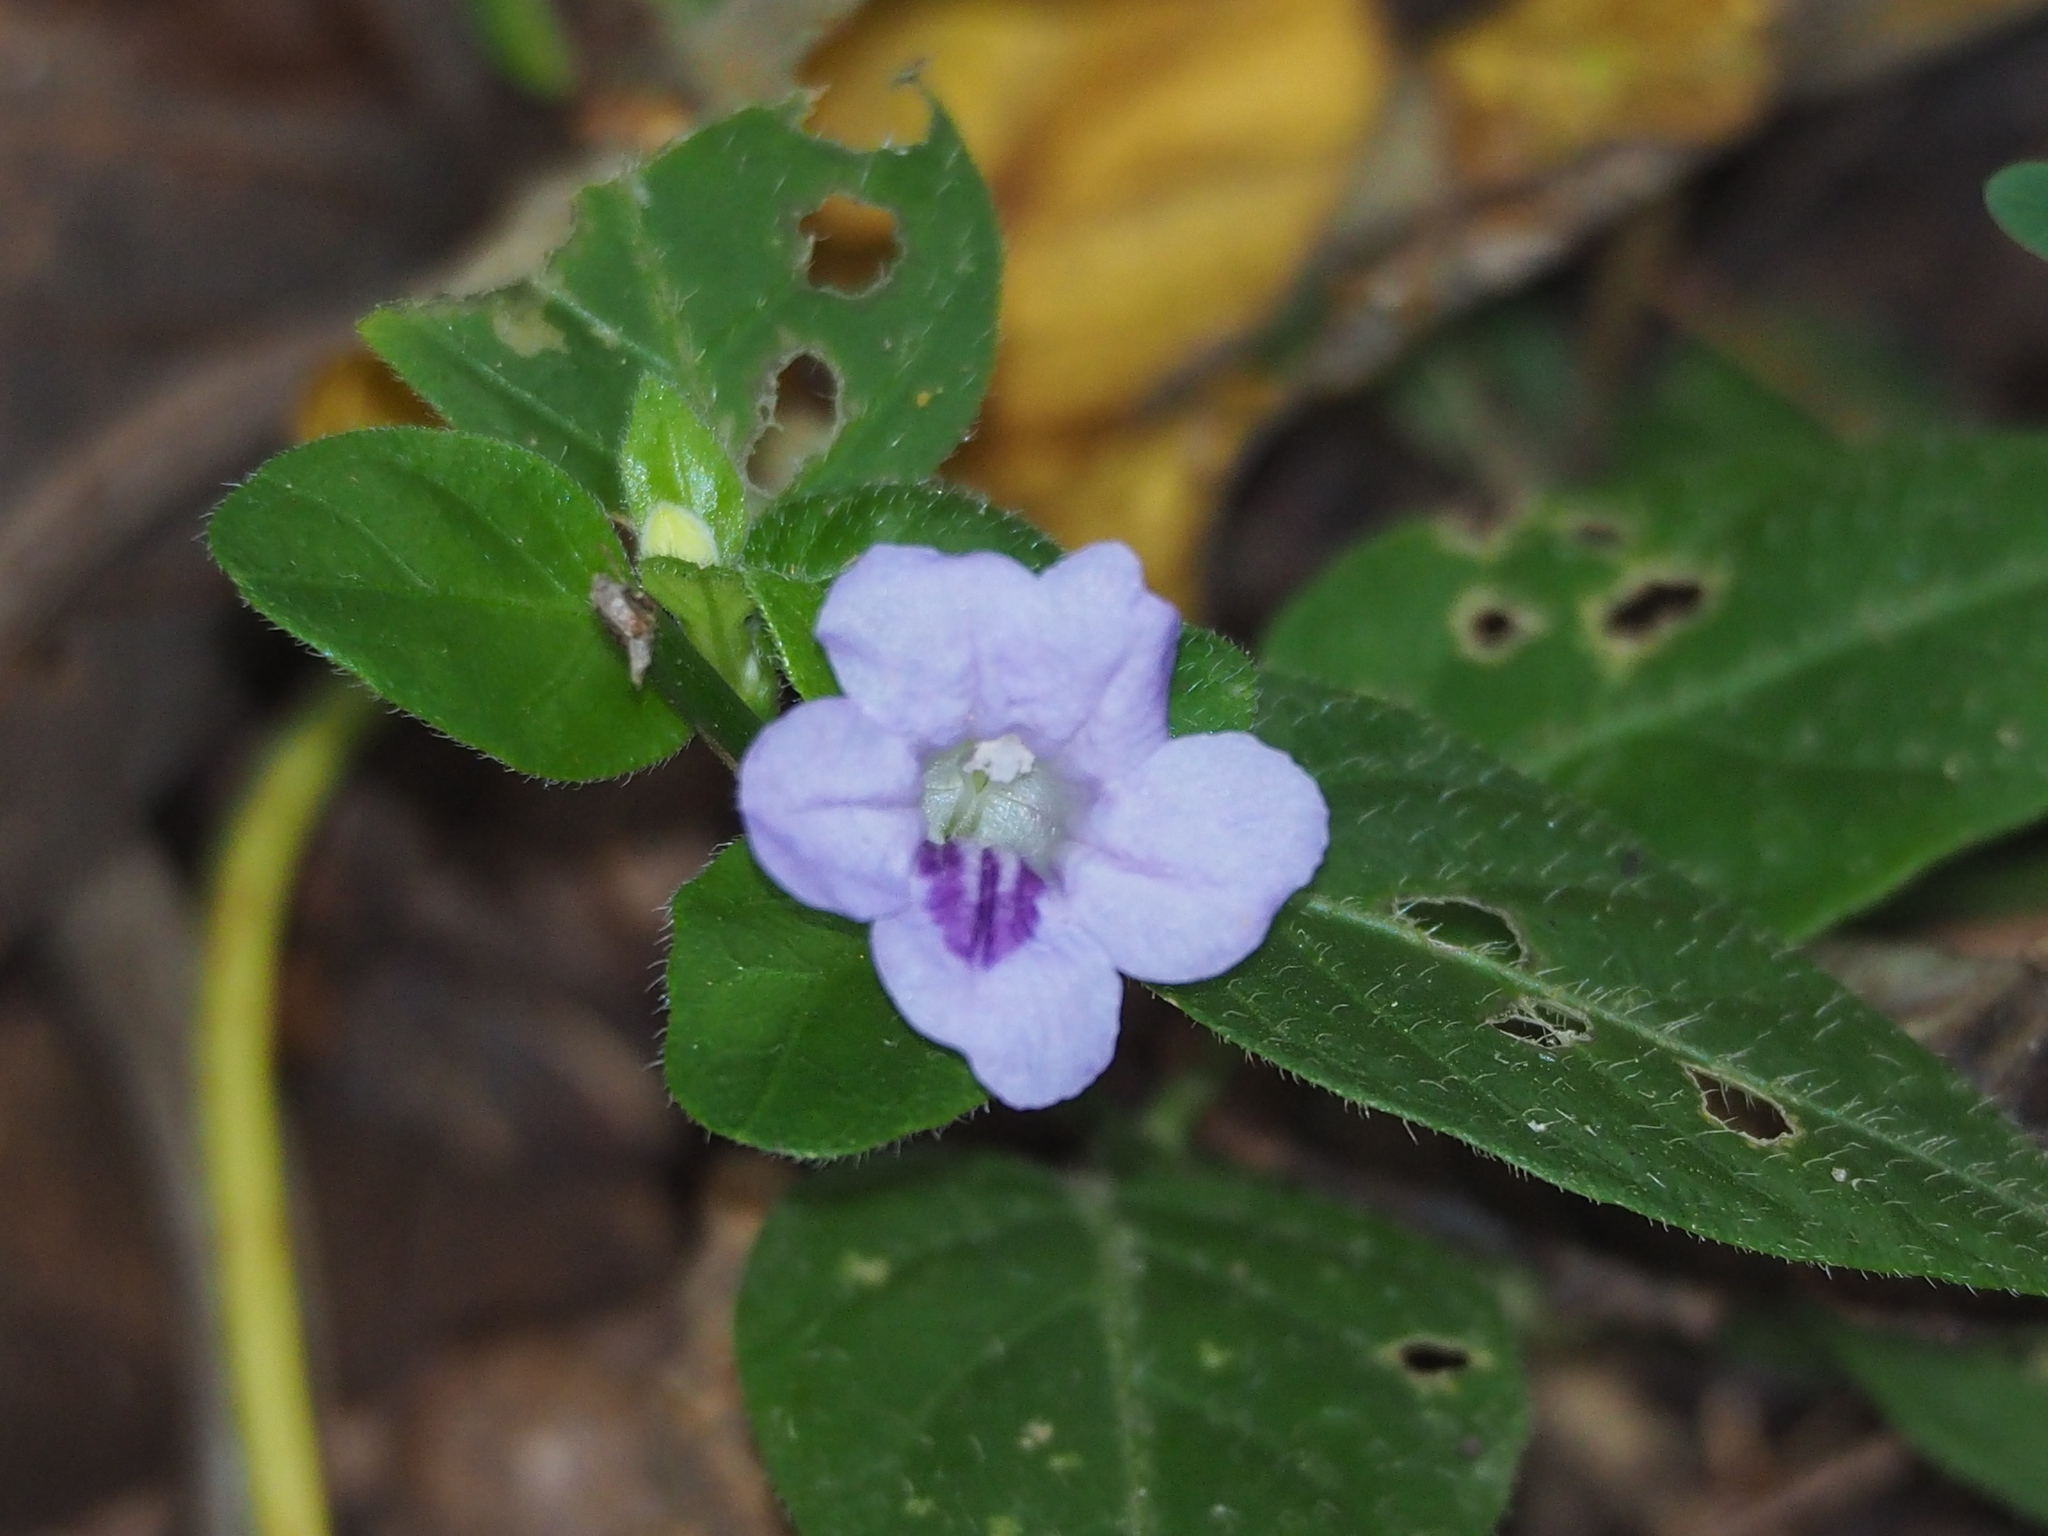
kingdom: Plantae
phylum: Tracheophyta
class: Magnoliopsida
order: Lamiales
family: Acanthaceae
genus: Ruellia
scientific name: Ruellia repens
